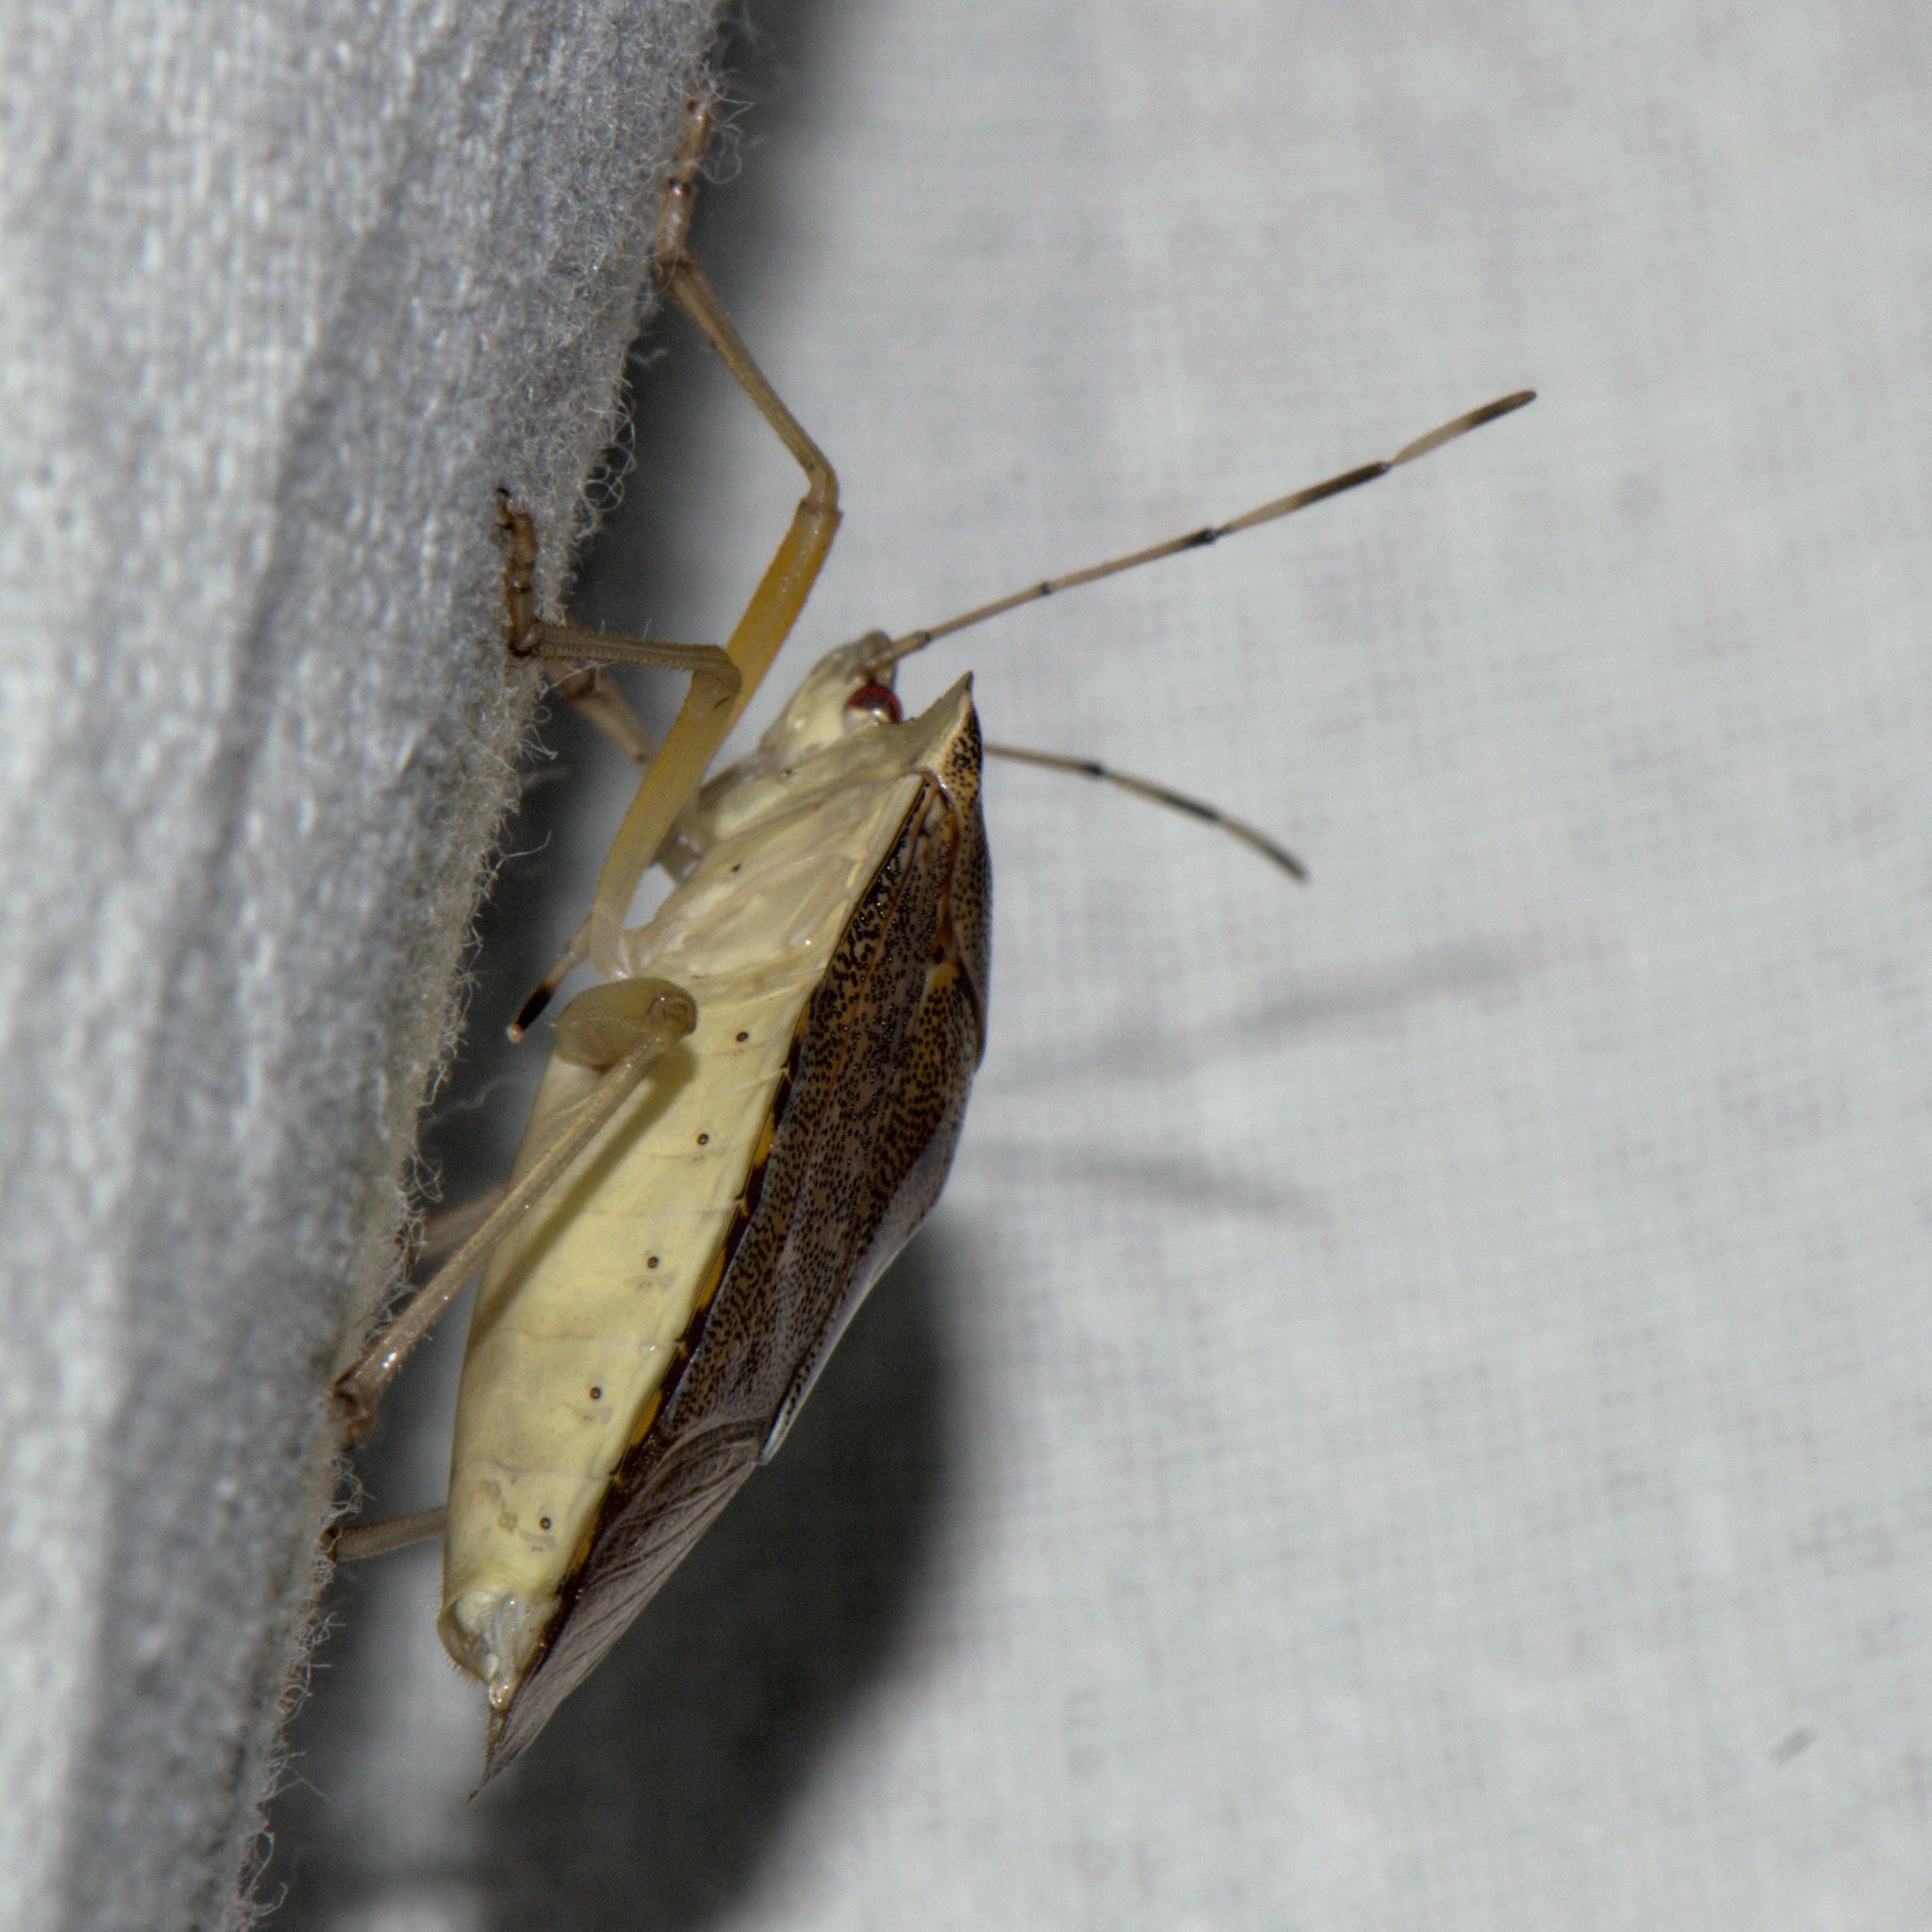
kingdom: Animalia
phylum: Arthropoda
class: Insecta
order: Hemiptera
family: Pentatomidae
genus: Pentatoma
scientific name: Pentatoma
